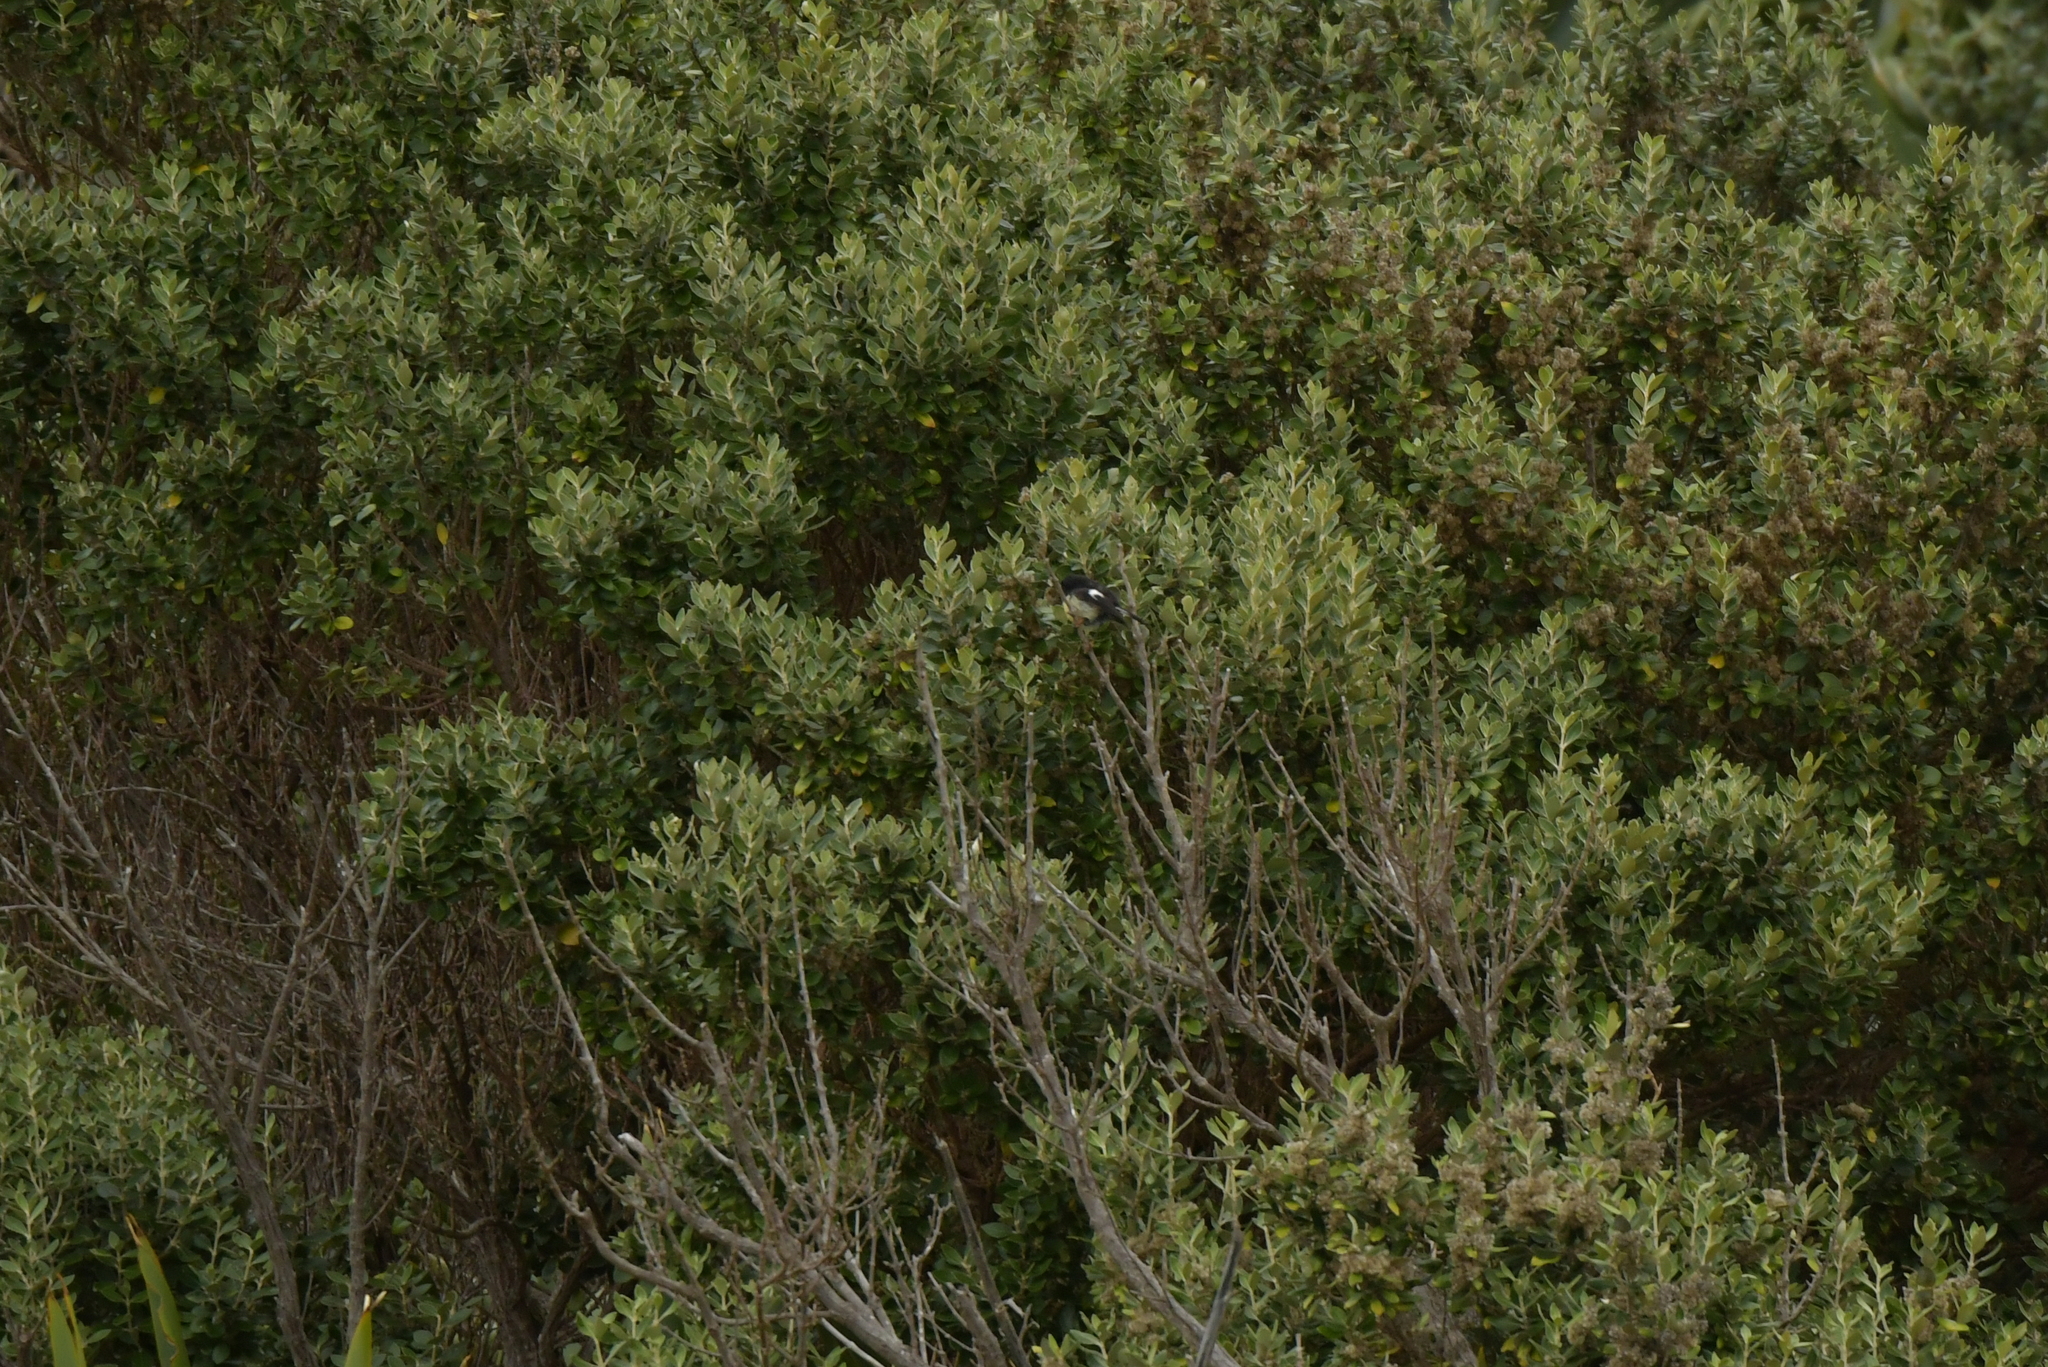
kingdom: Animalia
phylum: Chordata
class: Aves
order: Passeriformes
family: Petroicidae
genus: Petroica
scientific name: Petroica macrocephala
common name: Tomtit
